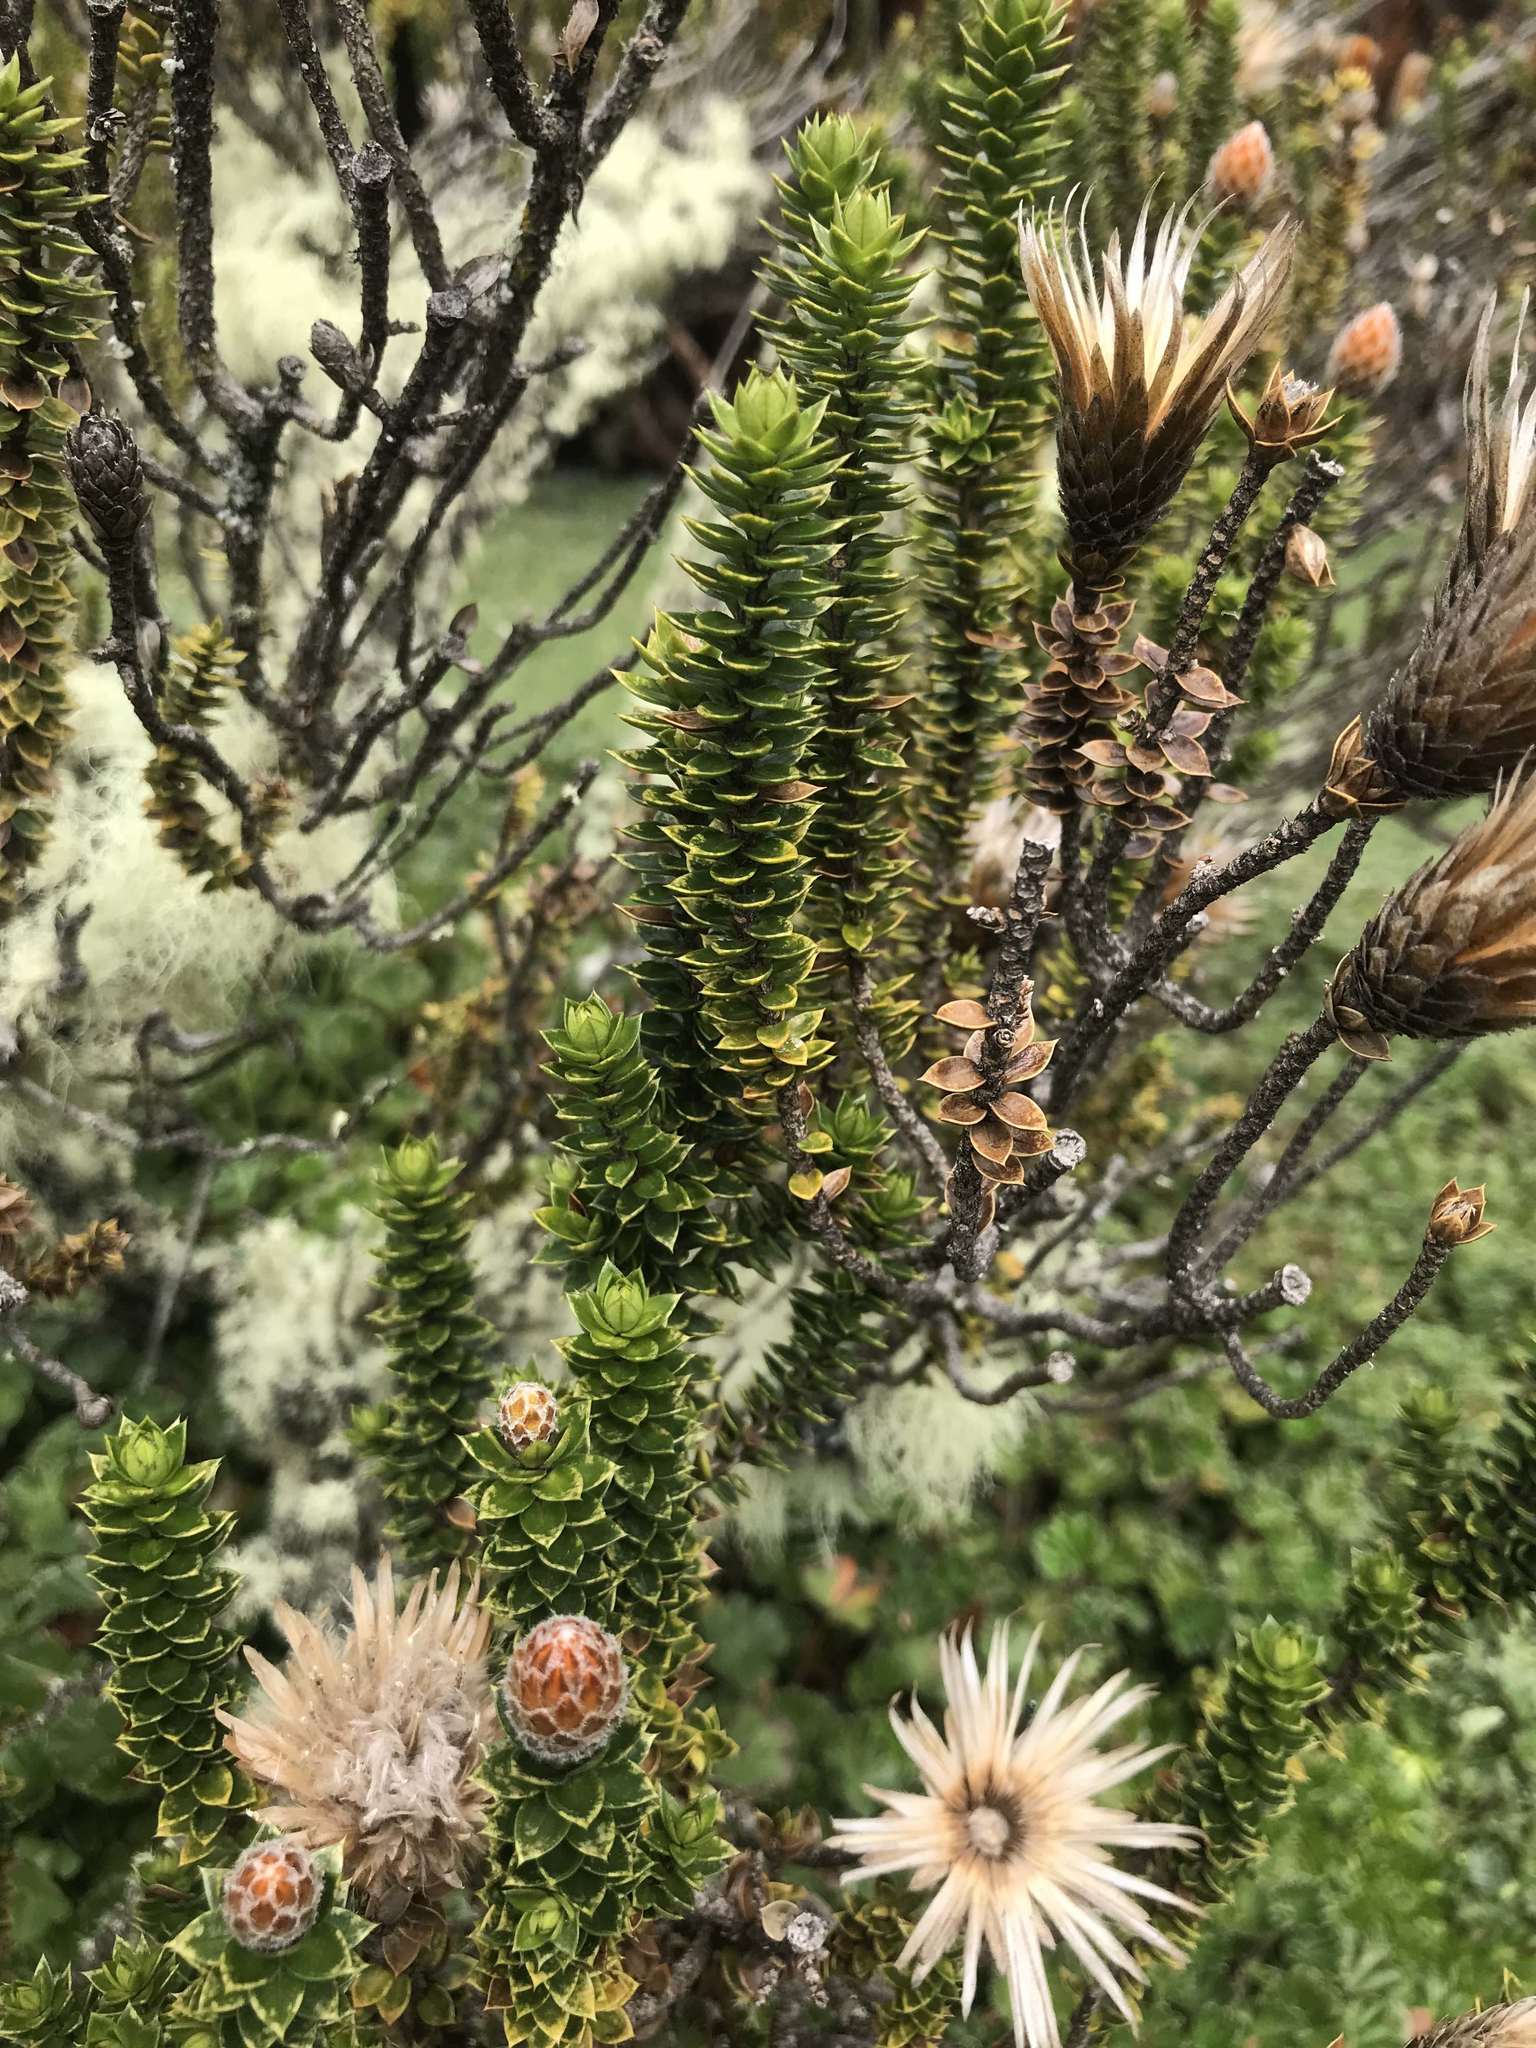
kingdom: Plantae
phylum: Tracheophyta
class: Magnoliopsida
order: Asterales
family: Asteraceae
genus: Chuquiraga
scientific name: Chuquiraga jussieui
